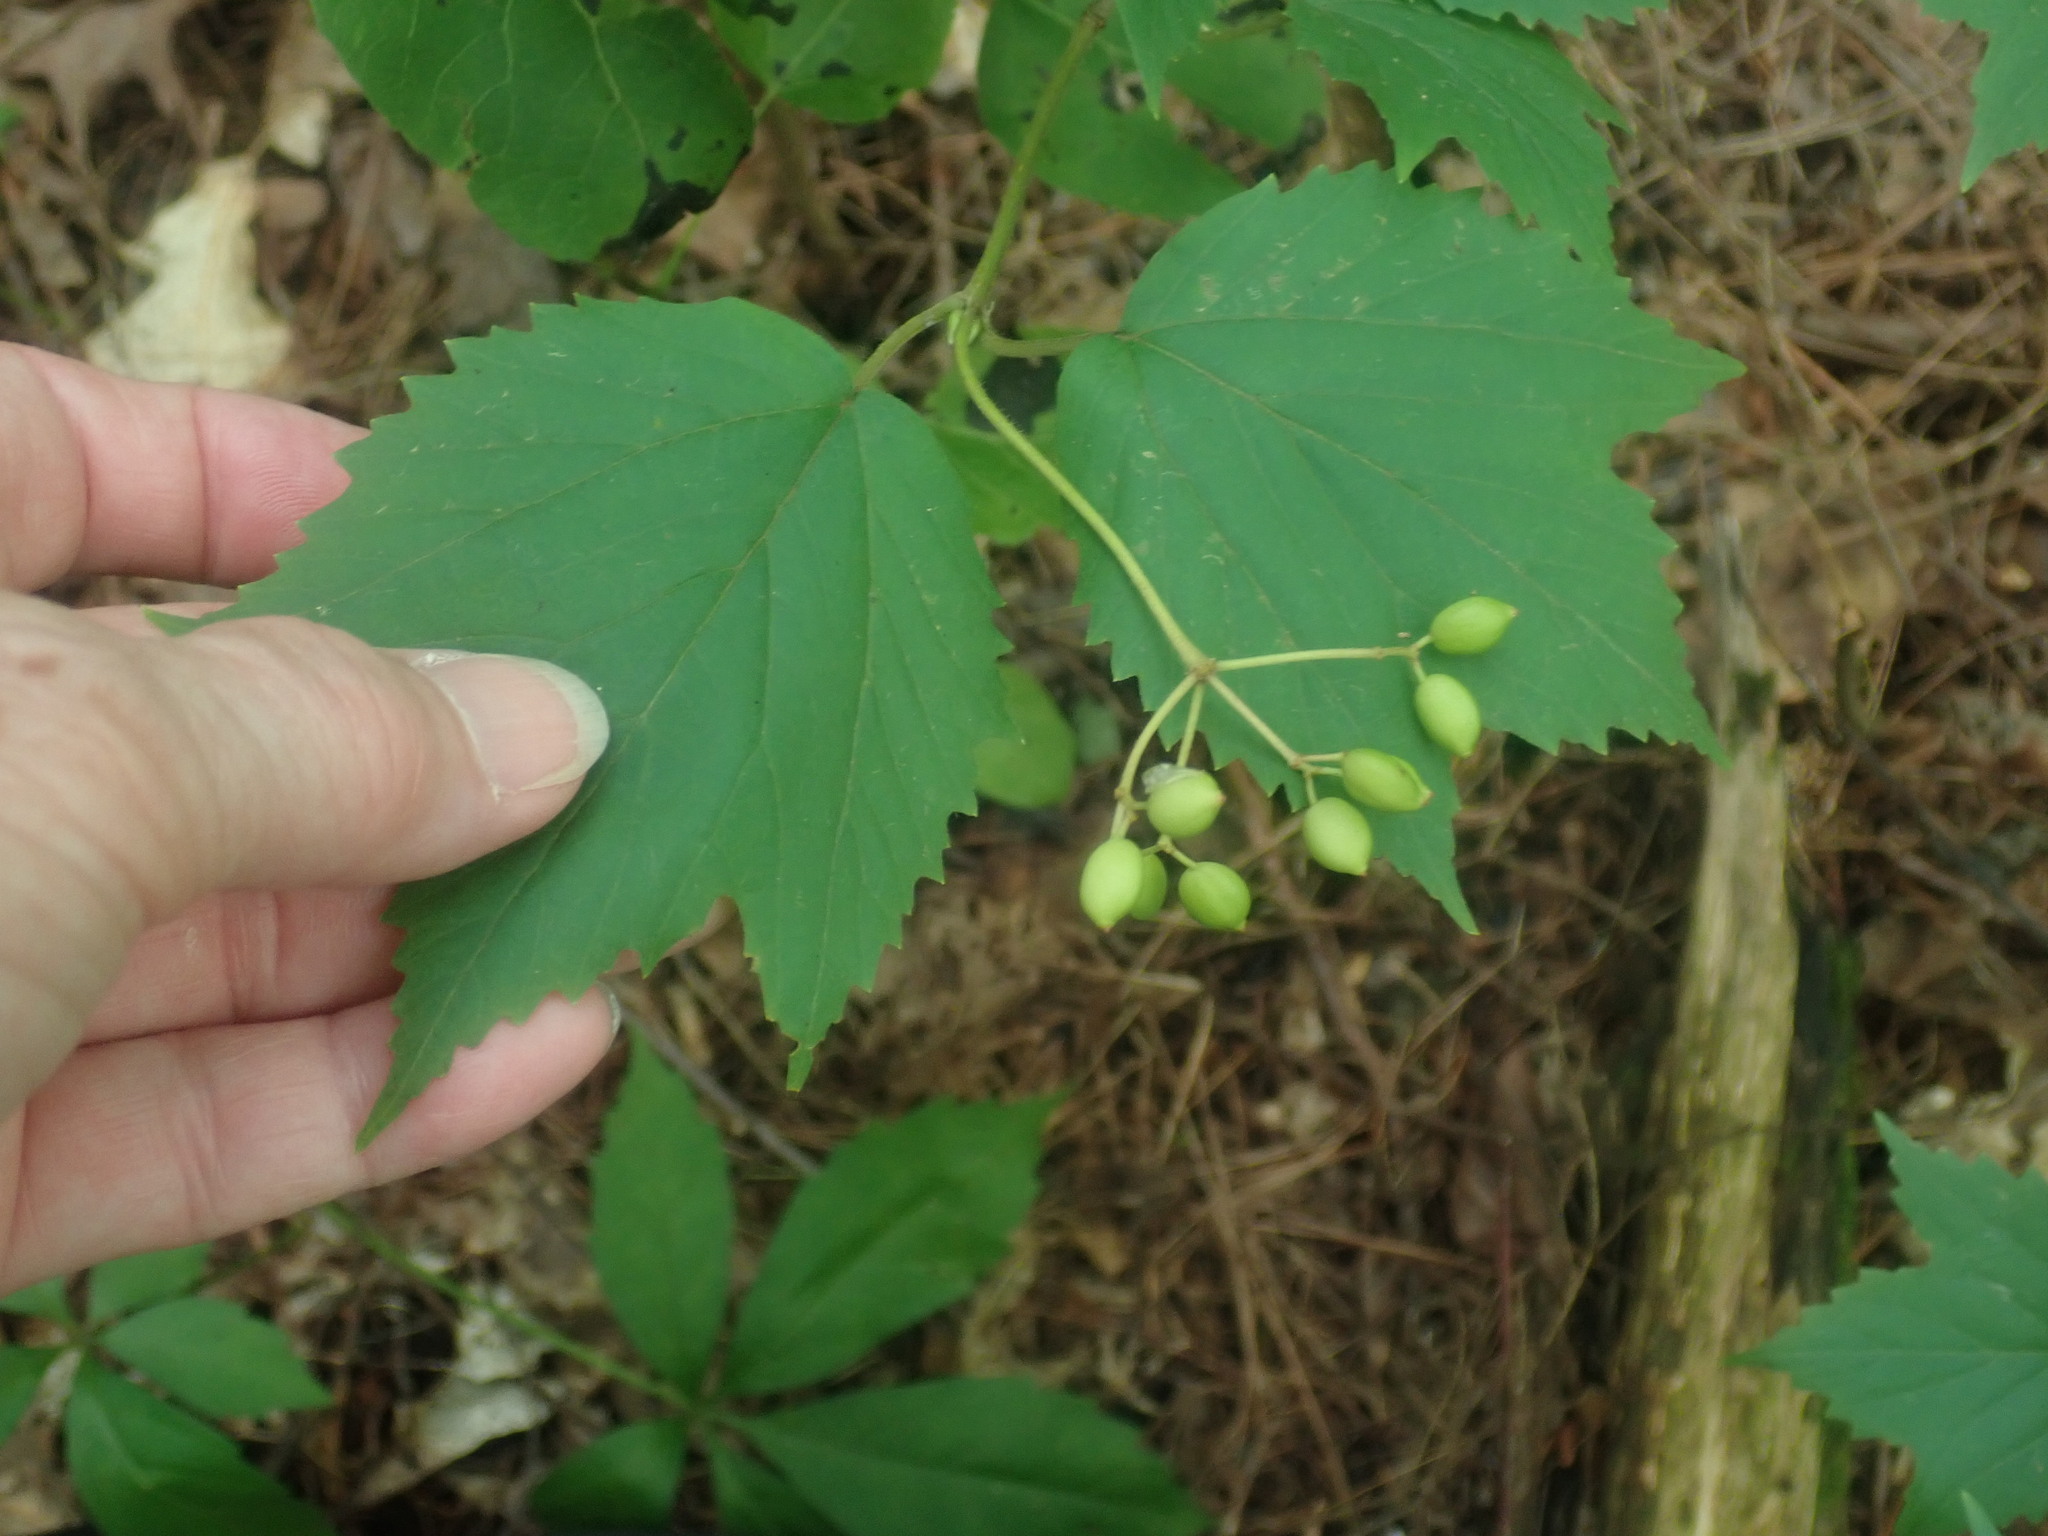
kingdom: Plantae
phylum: Tracheophyta
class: Magnoliopsida
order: Dipsacales
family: Viburnaceae
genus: Viburnum
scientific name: Viburnum acerifolium
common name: Dockmackie
